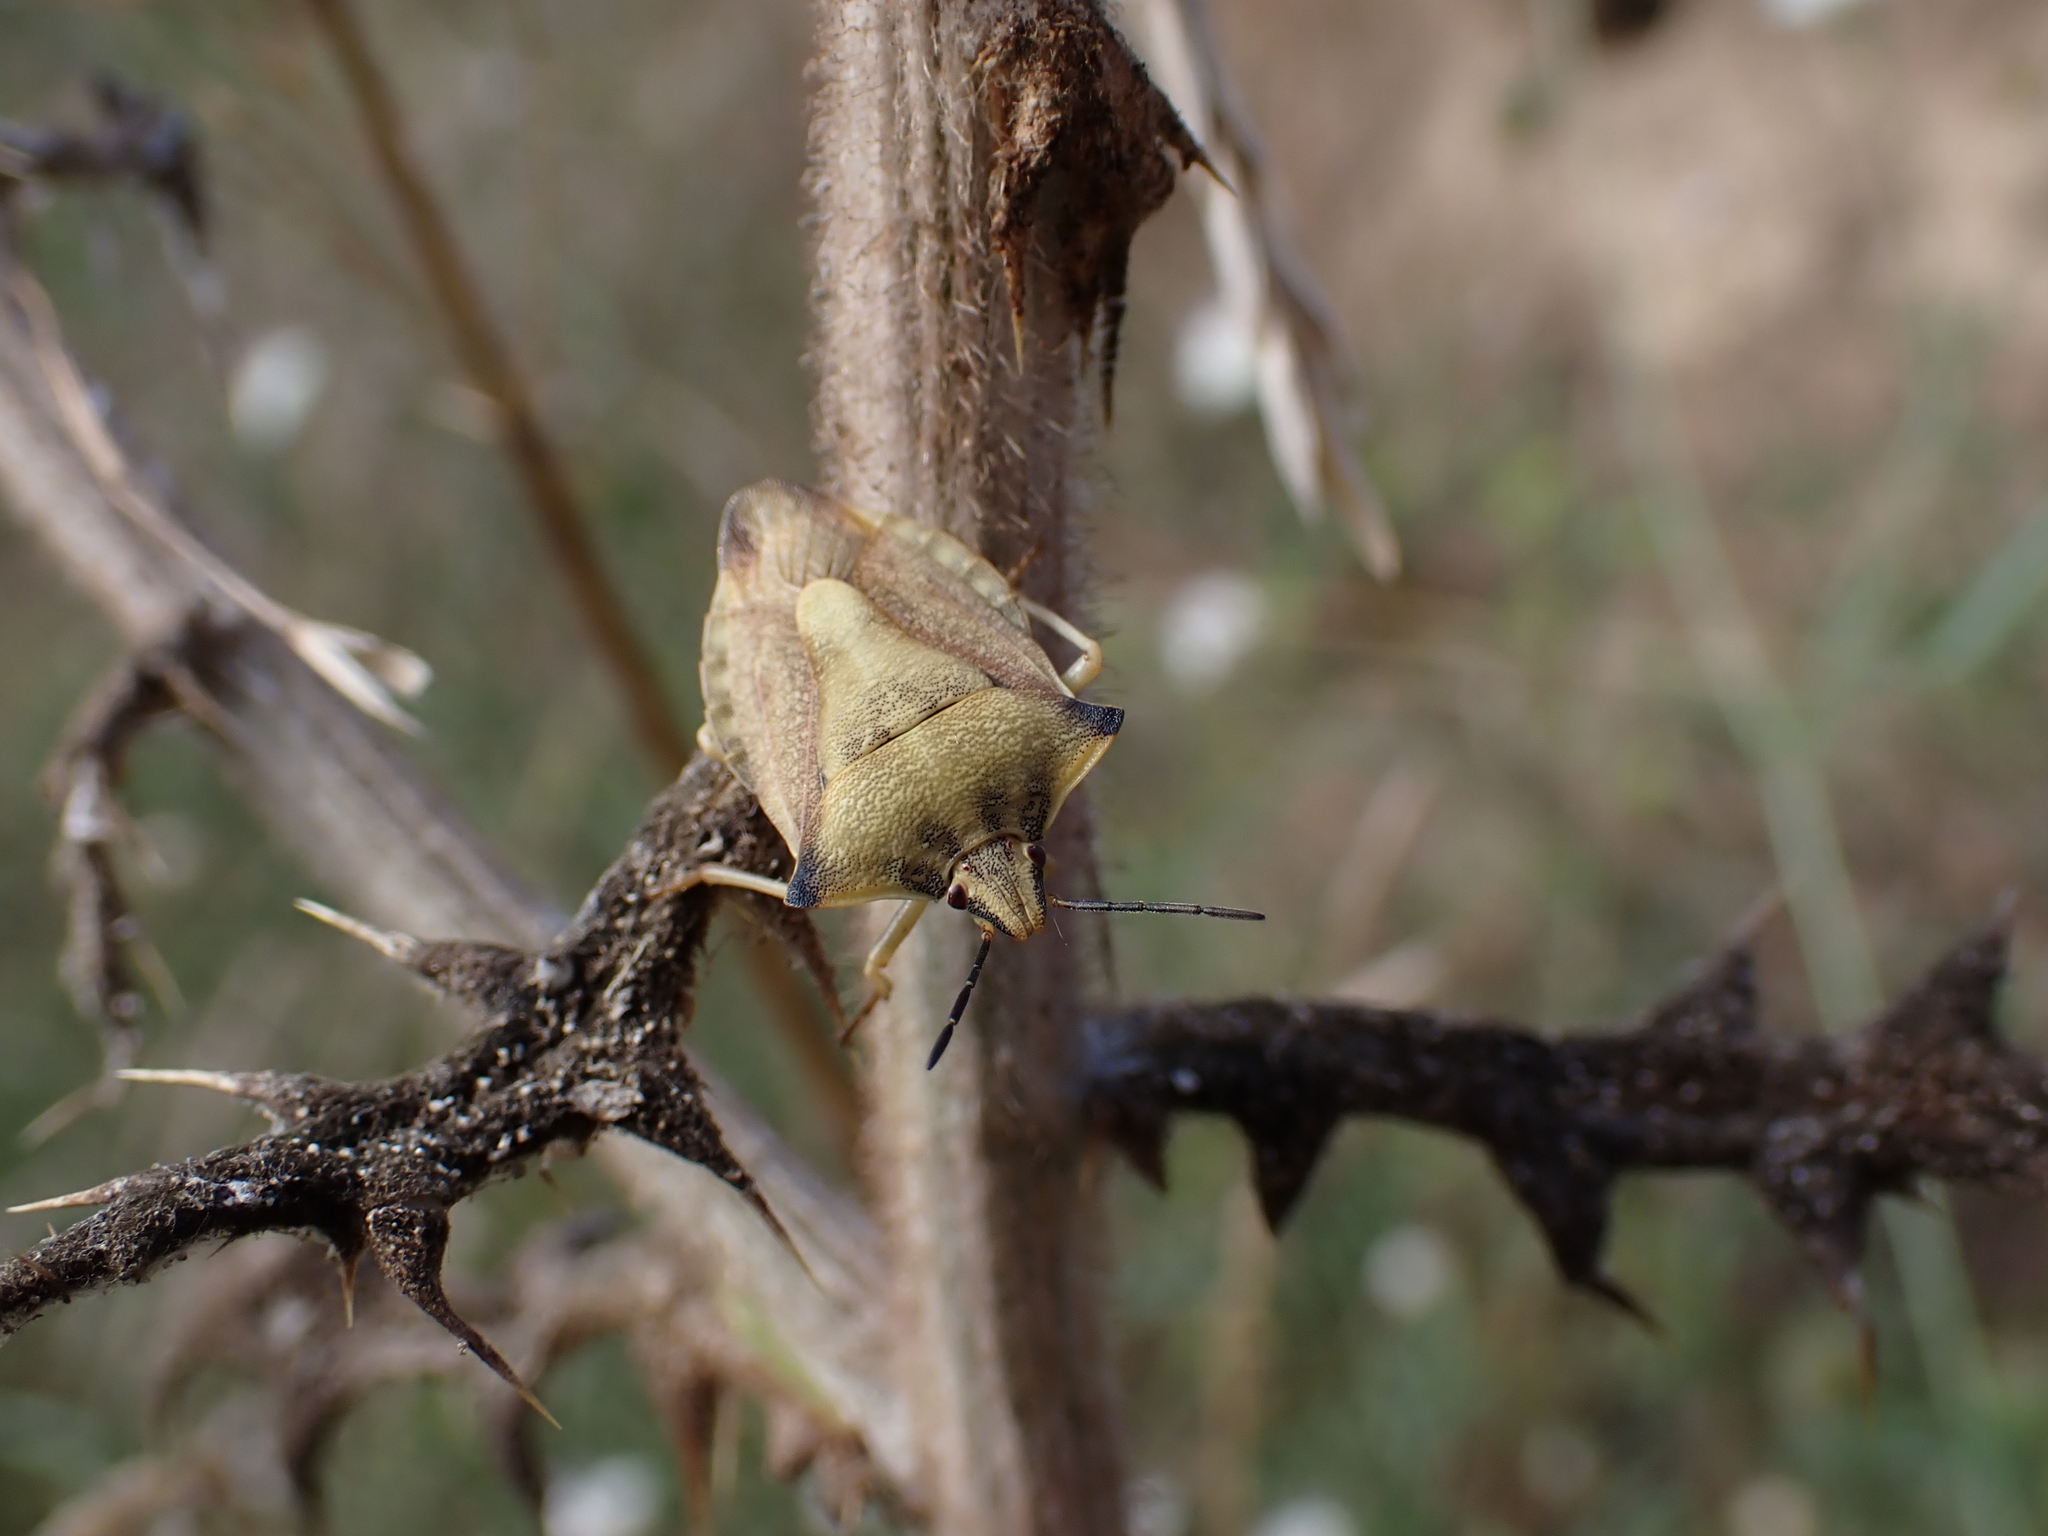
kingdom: Animalia
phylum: Arthropoda
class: Insecta
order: Hemiptera
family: Pentatomidae
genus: Carpocoris
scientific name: Carpocoris fuscispinus
